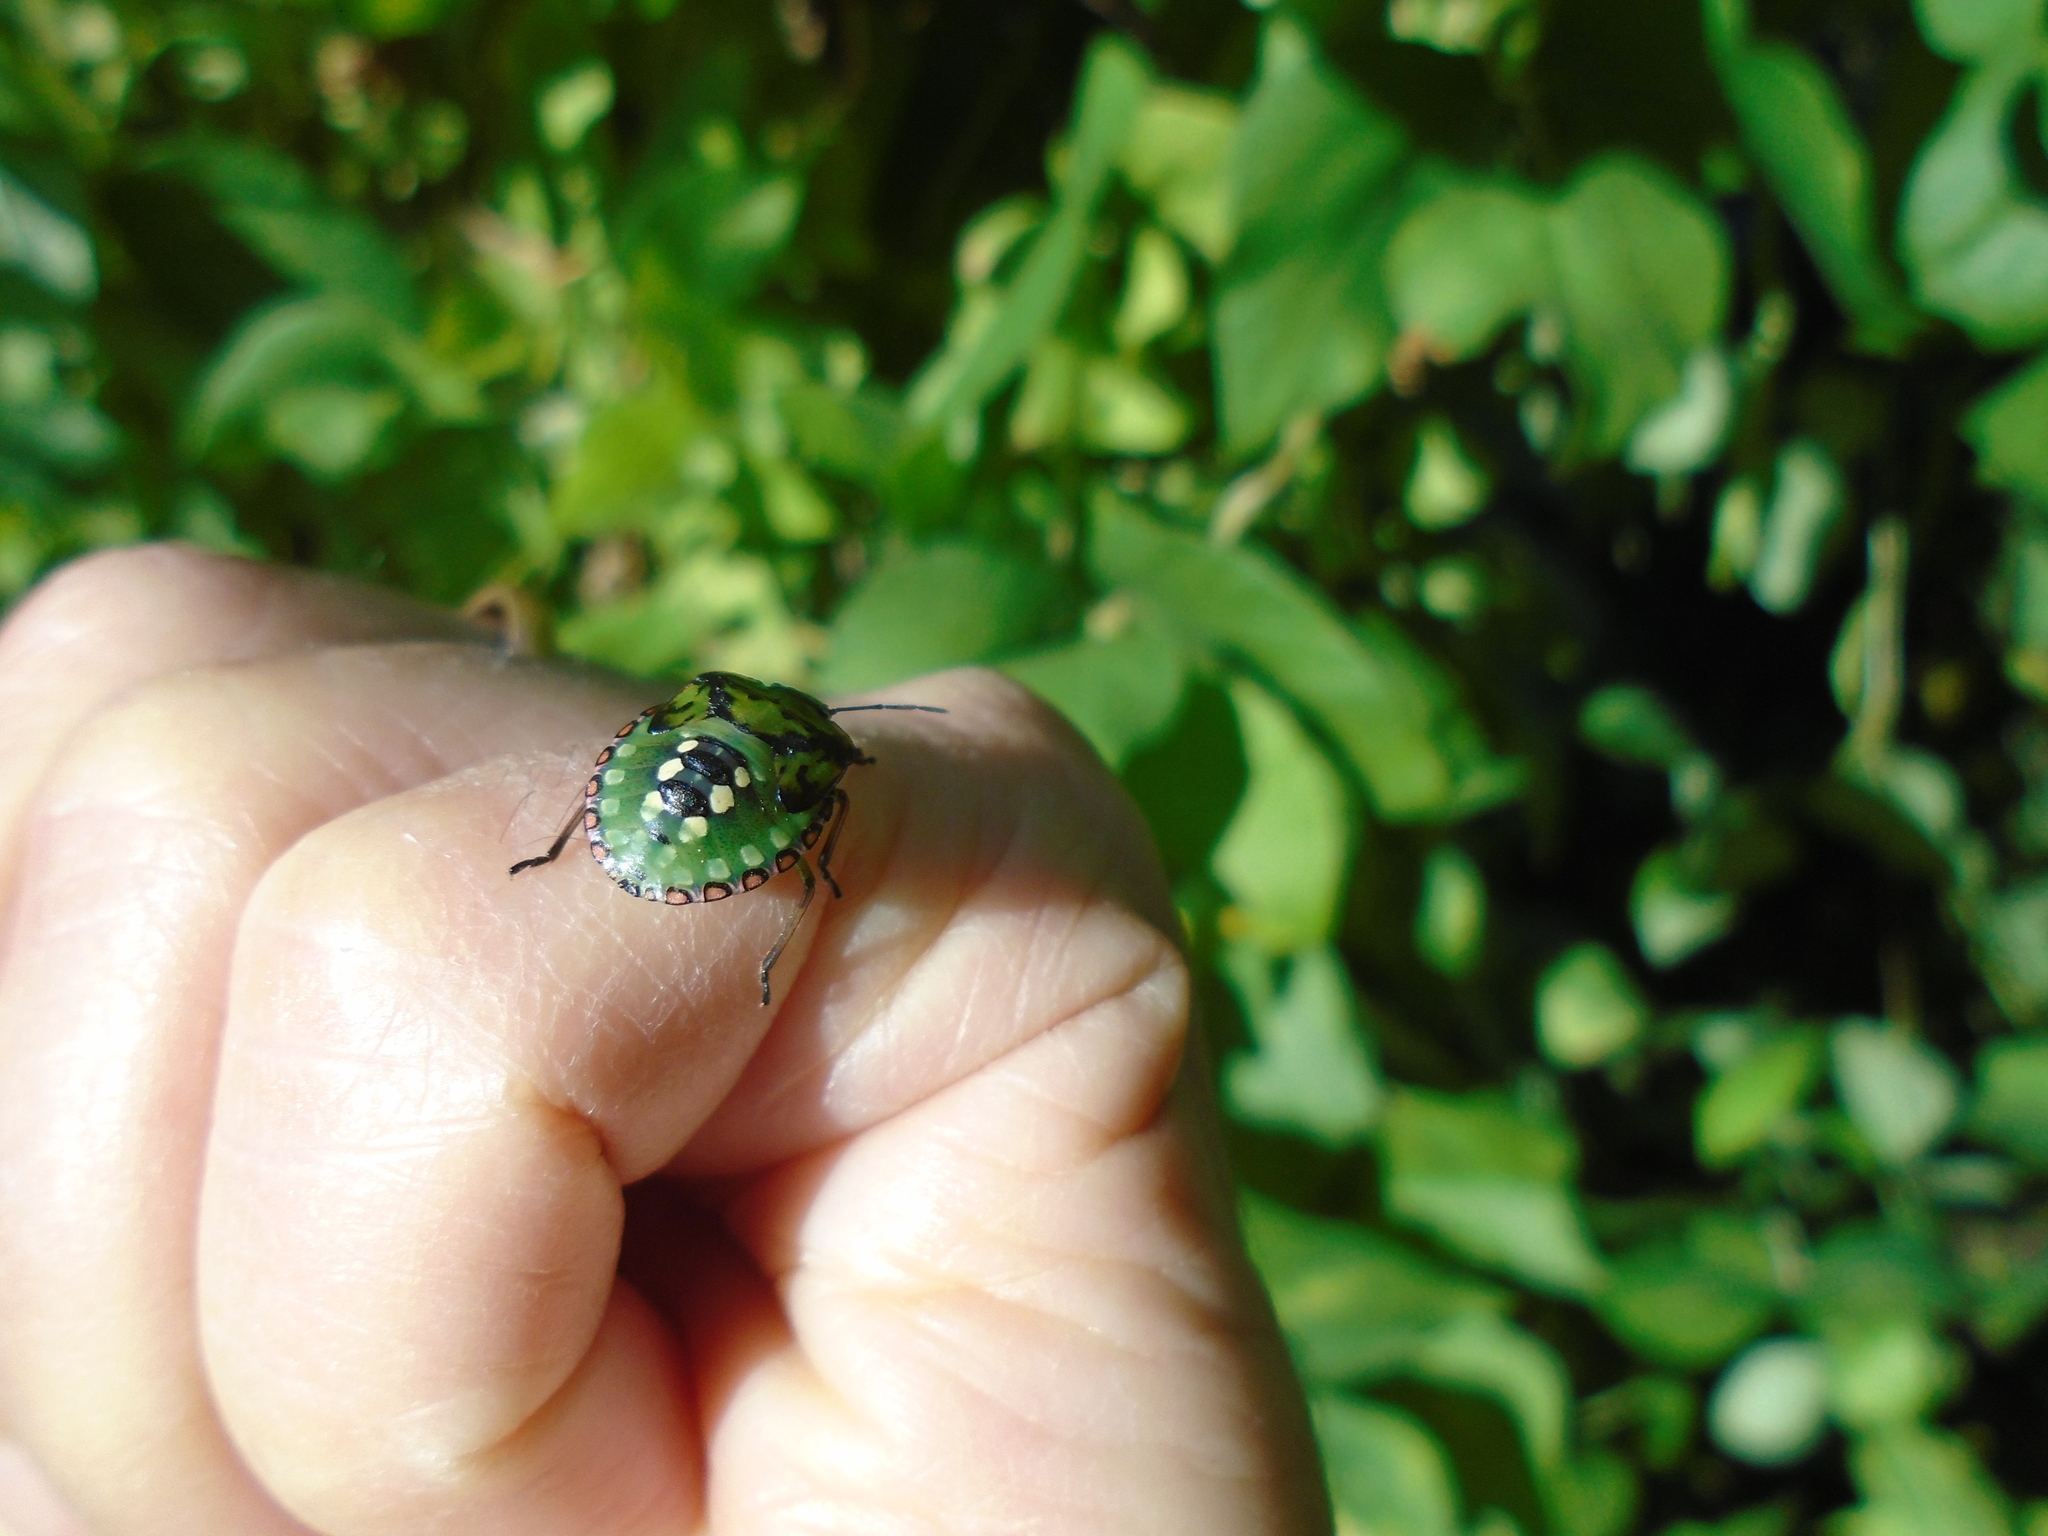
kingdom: Animalia
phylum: Arthropoda
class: Insecta
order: Hemiptera
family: Pentatomidae
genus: Nezara
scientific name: Nezara viridula
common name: Southern green stink bug
